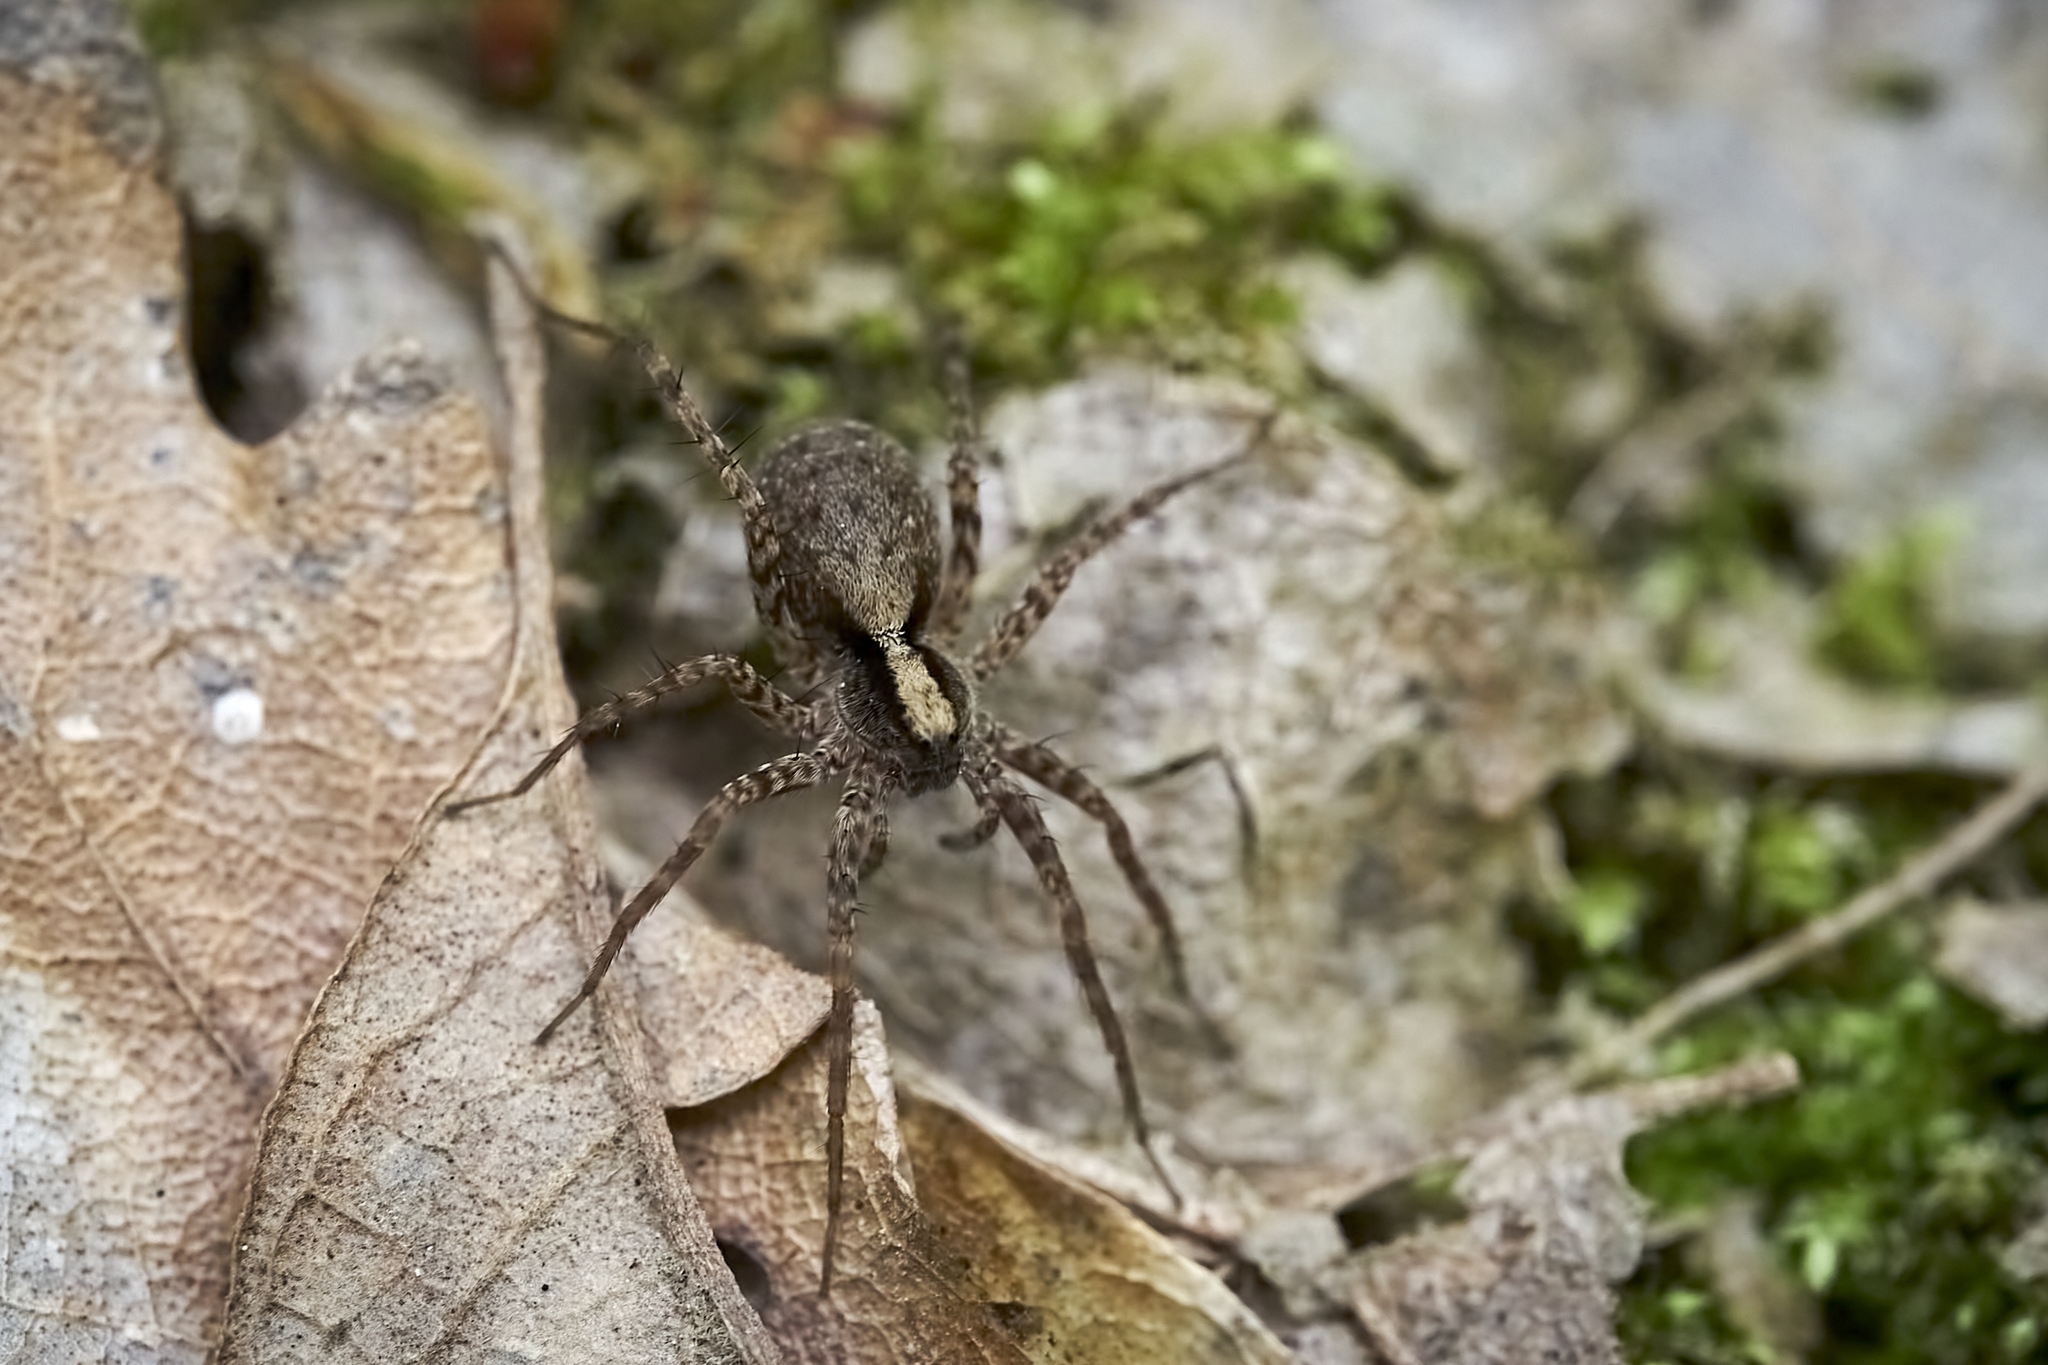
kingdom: Animalia
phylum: Arthropoda
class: Arachnida
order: Araneae
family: Lycosidae
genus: Pardosa
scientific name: Pardosa
